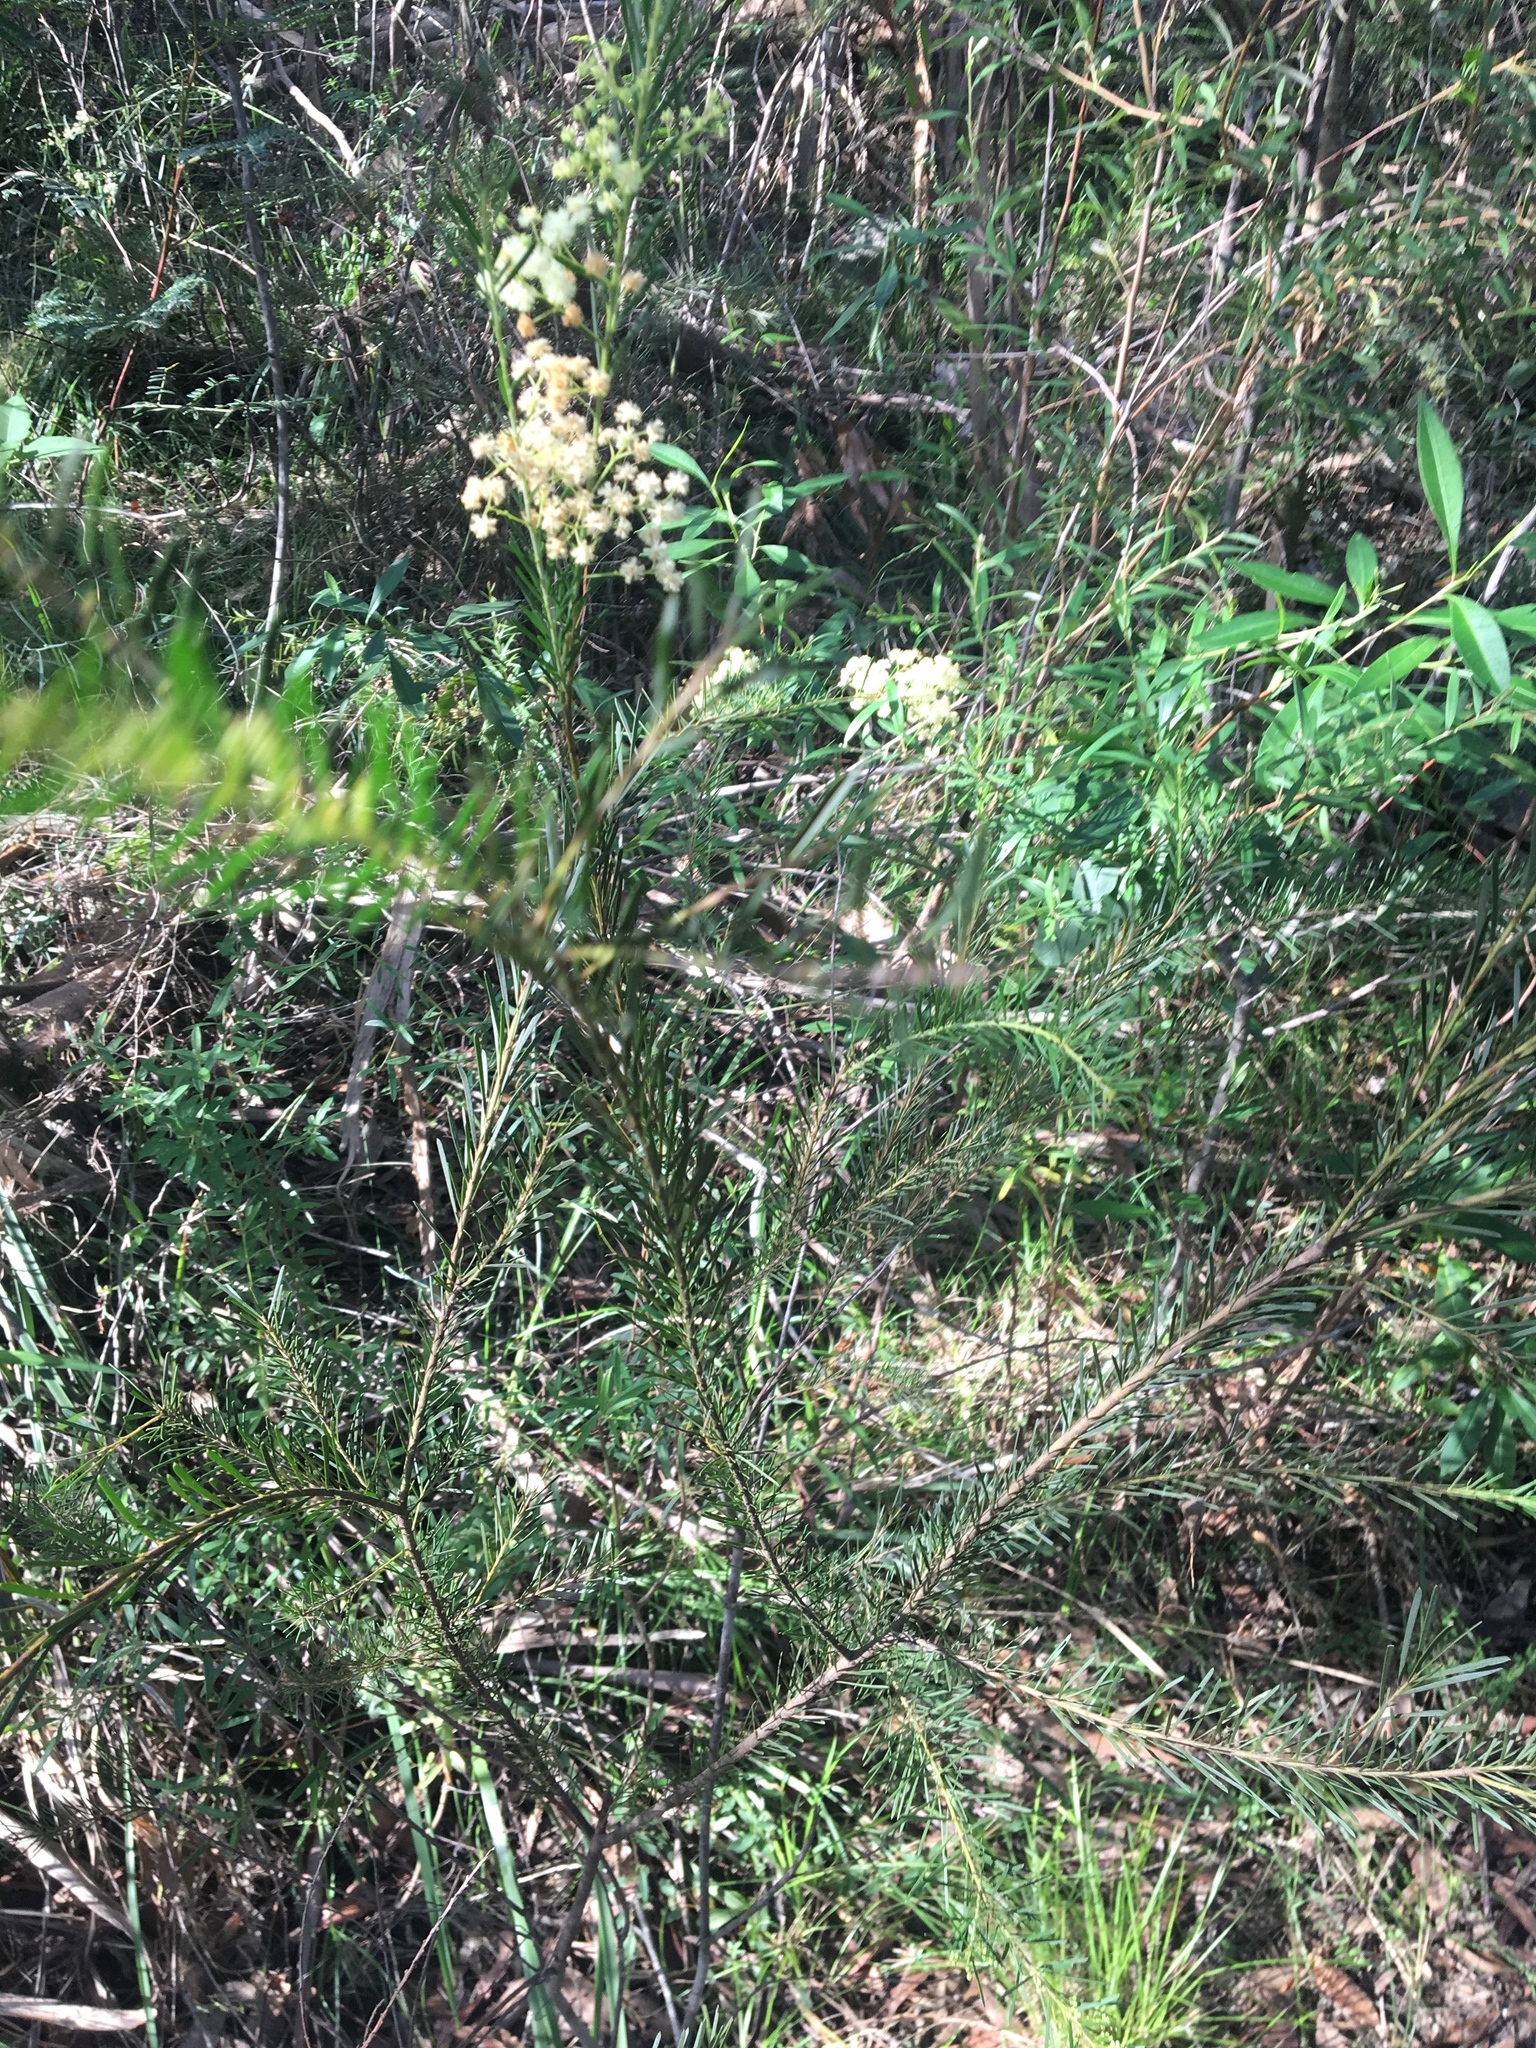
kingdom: Plantae
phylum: Tracheophyta
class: Magnoliopsida
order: Fabales
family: Fabaceae
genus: Acacia
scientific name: Acacia linifolia
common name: White wattle
